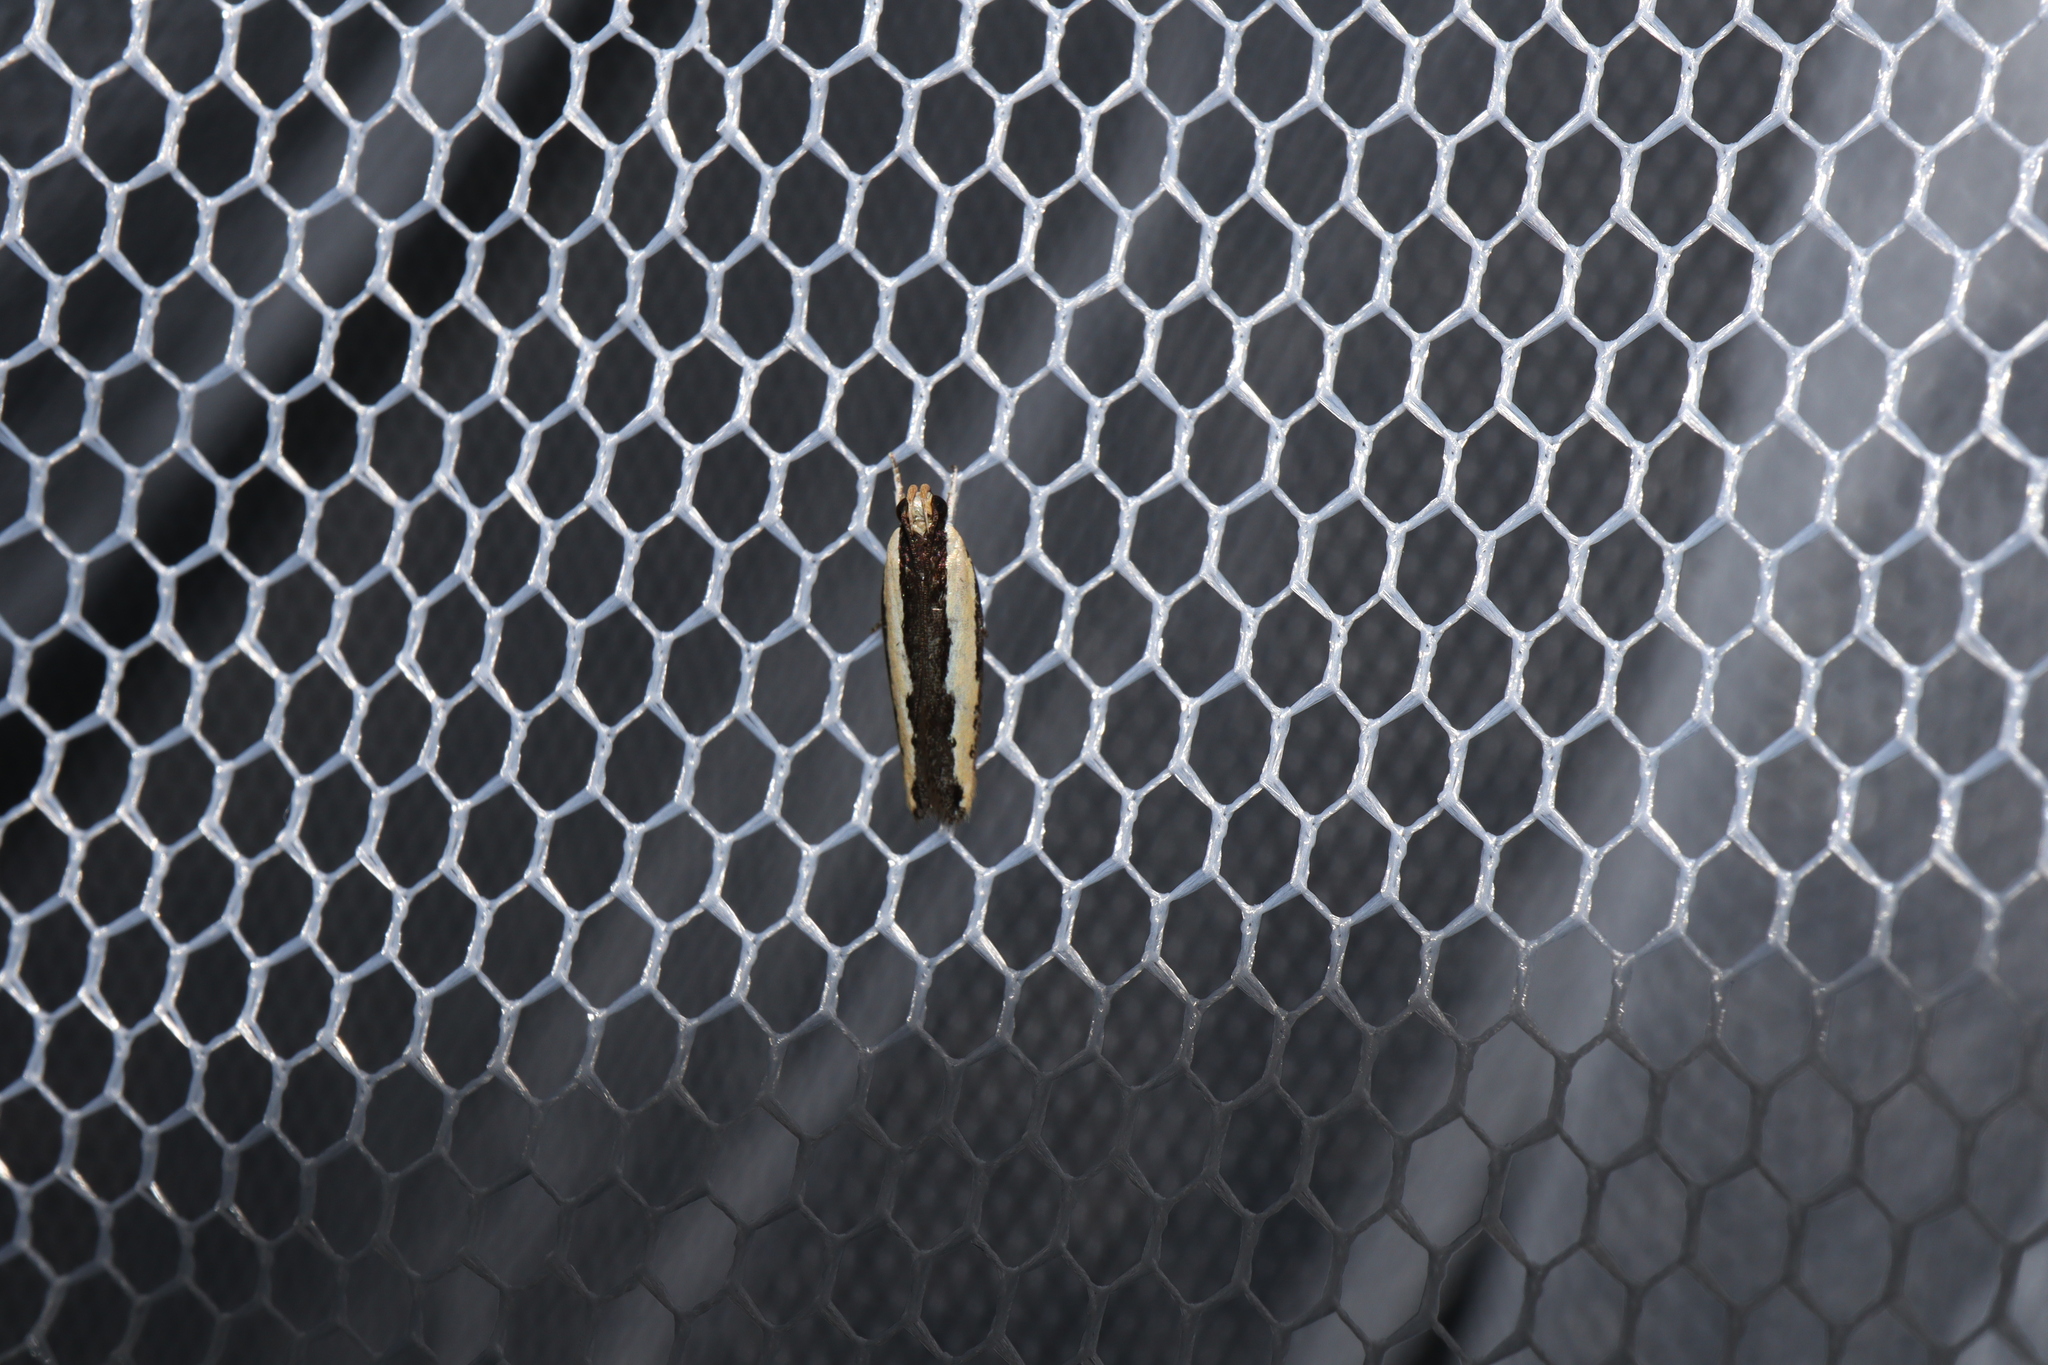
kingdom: Animalia
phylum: Arthropoda
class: Insecta
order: Lepidoptera
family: Gelechiidae
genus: Ardozyga
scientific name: Ardozyga stratifera
